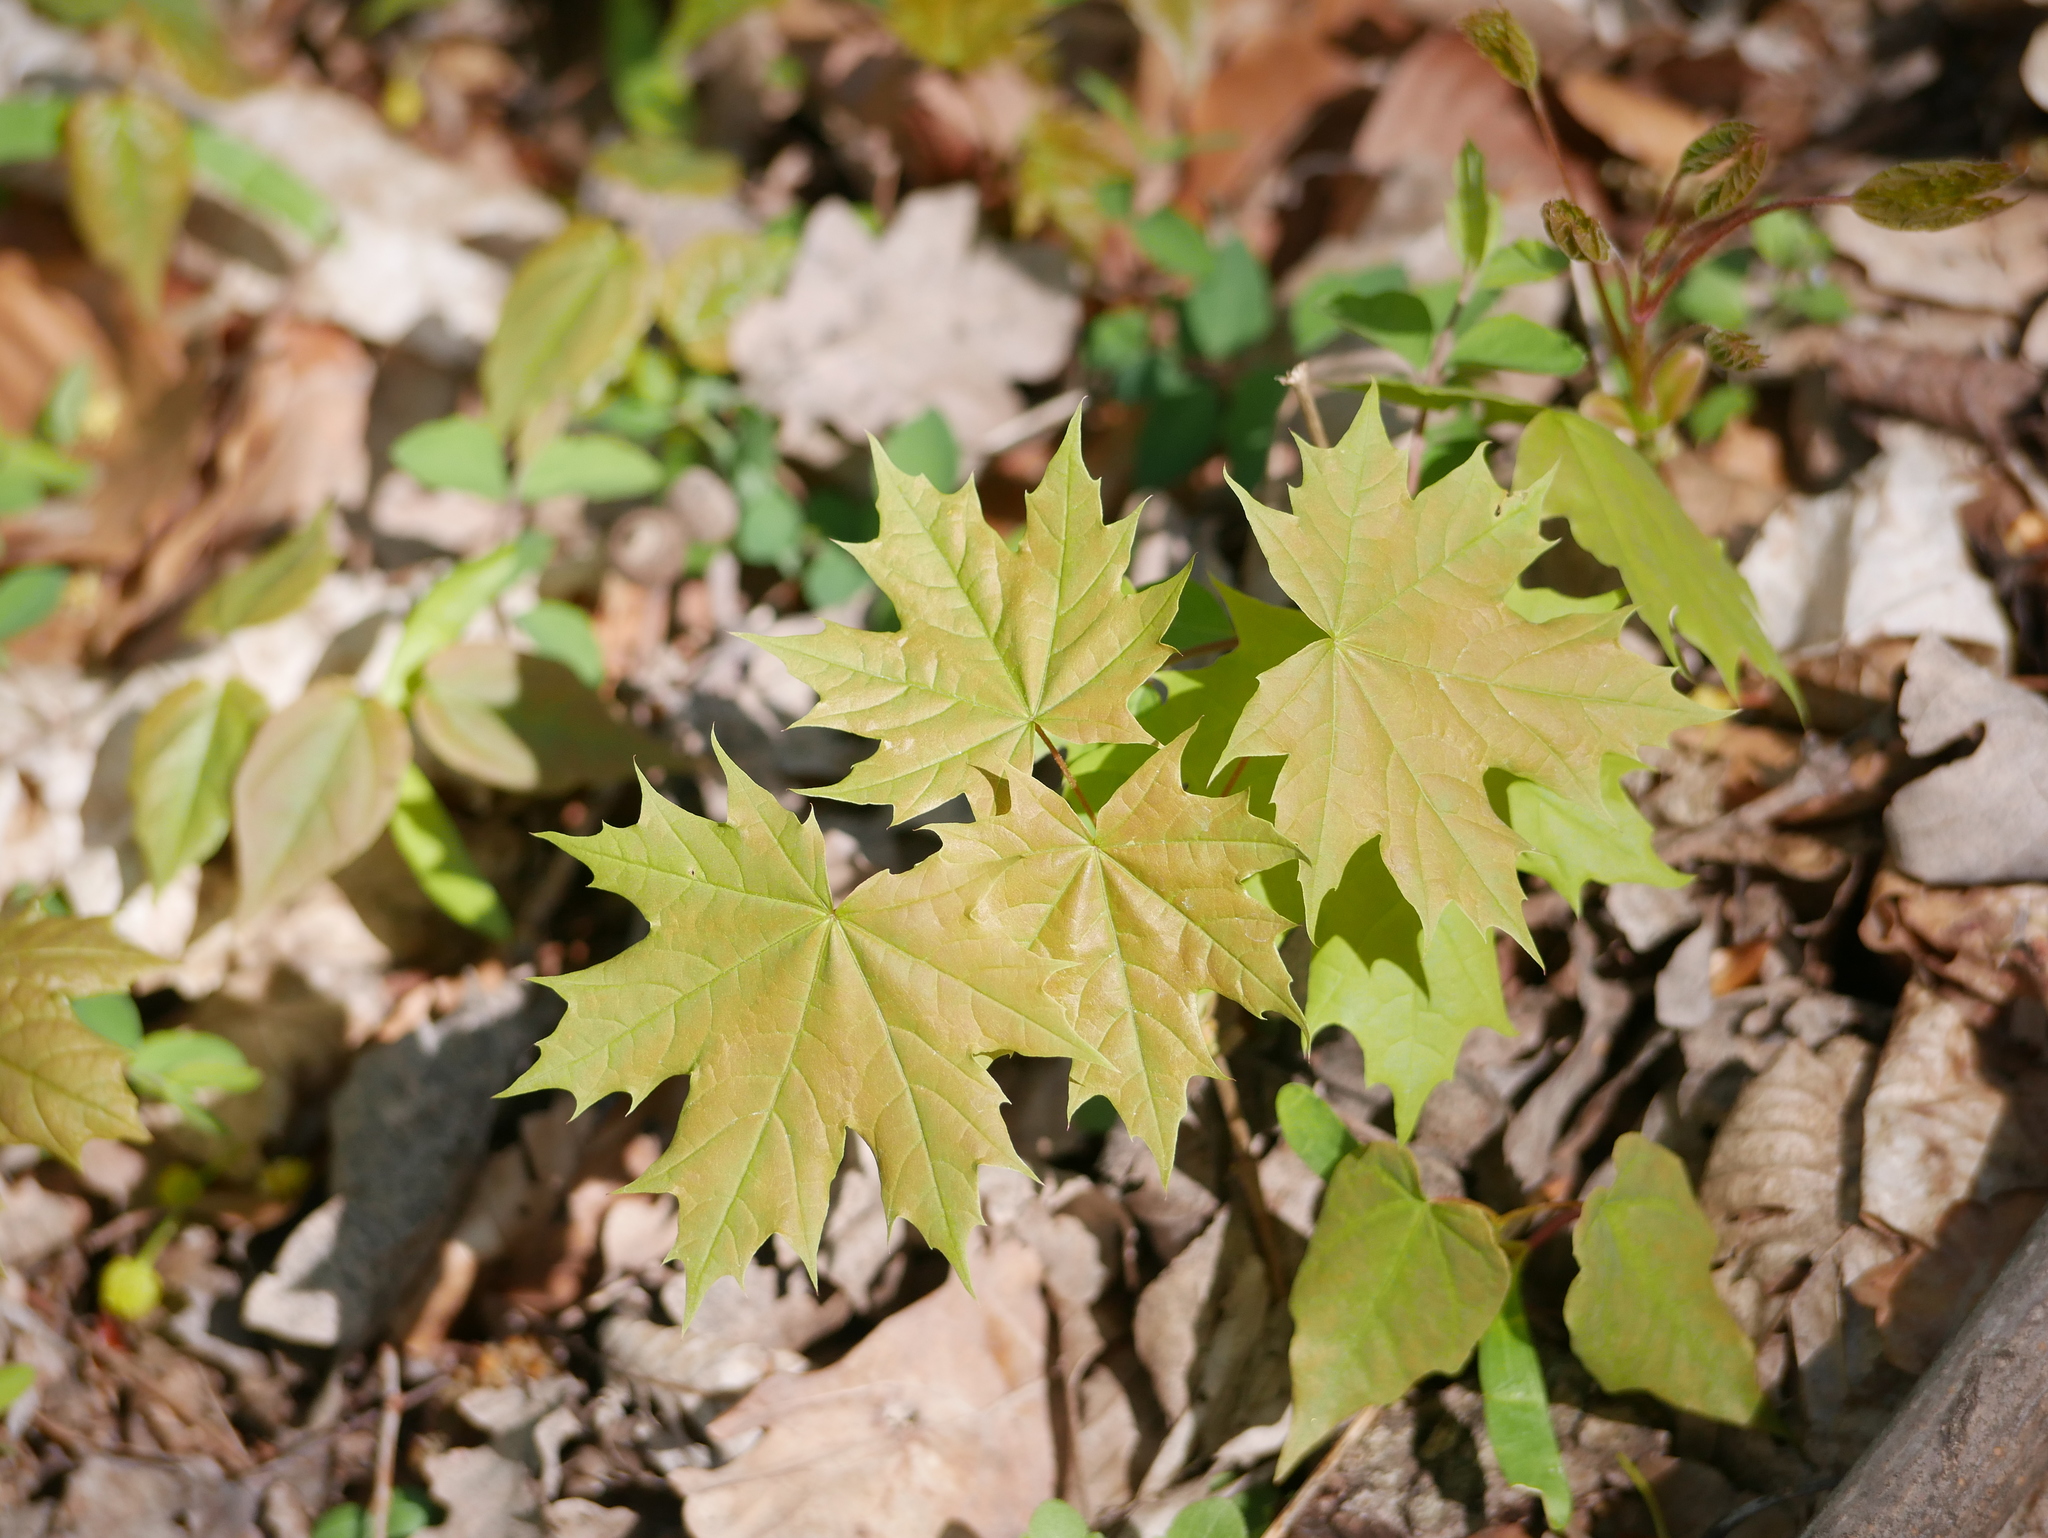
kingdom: Plantae
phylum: Tracheophyta
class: Magnoliopsida
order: Sapindales
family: Sapindaceae
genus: Acer
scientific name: Acer platanoides
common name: Norway maple
